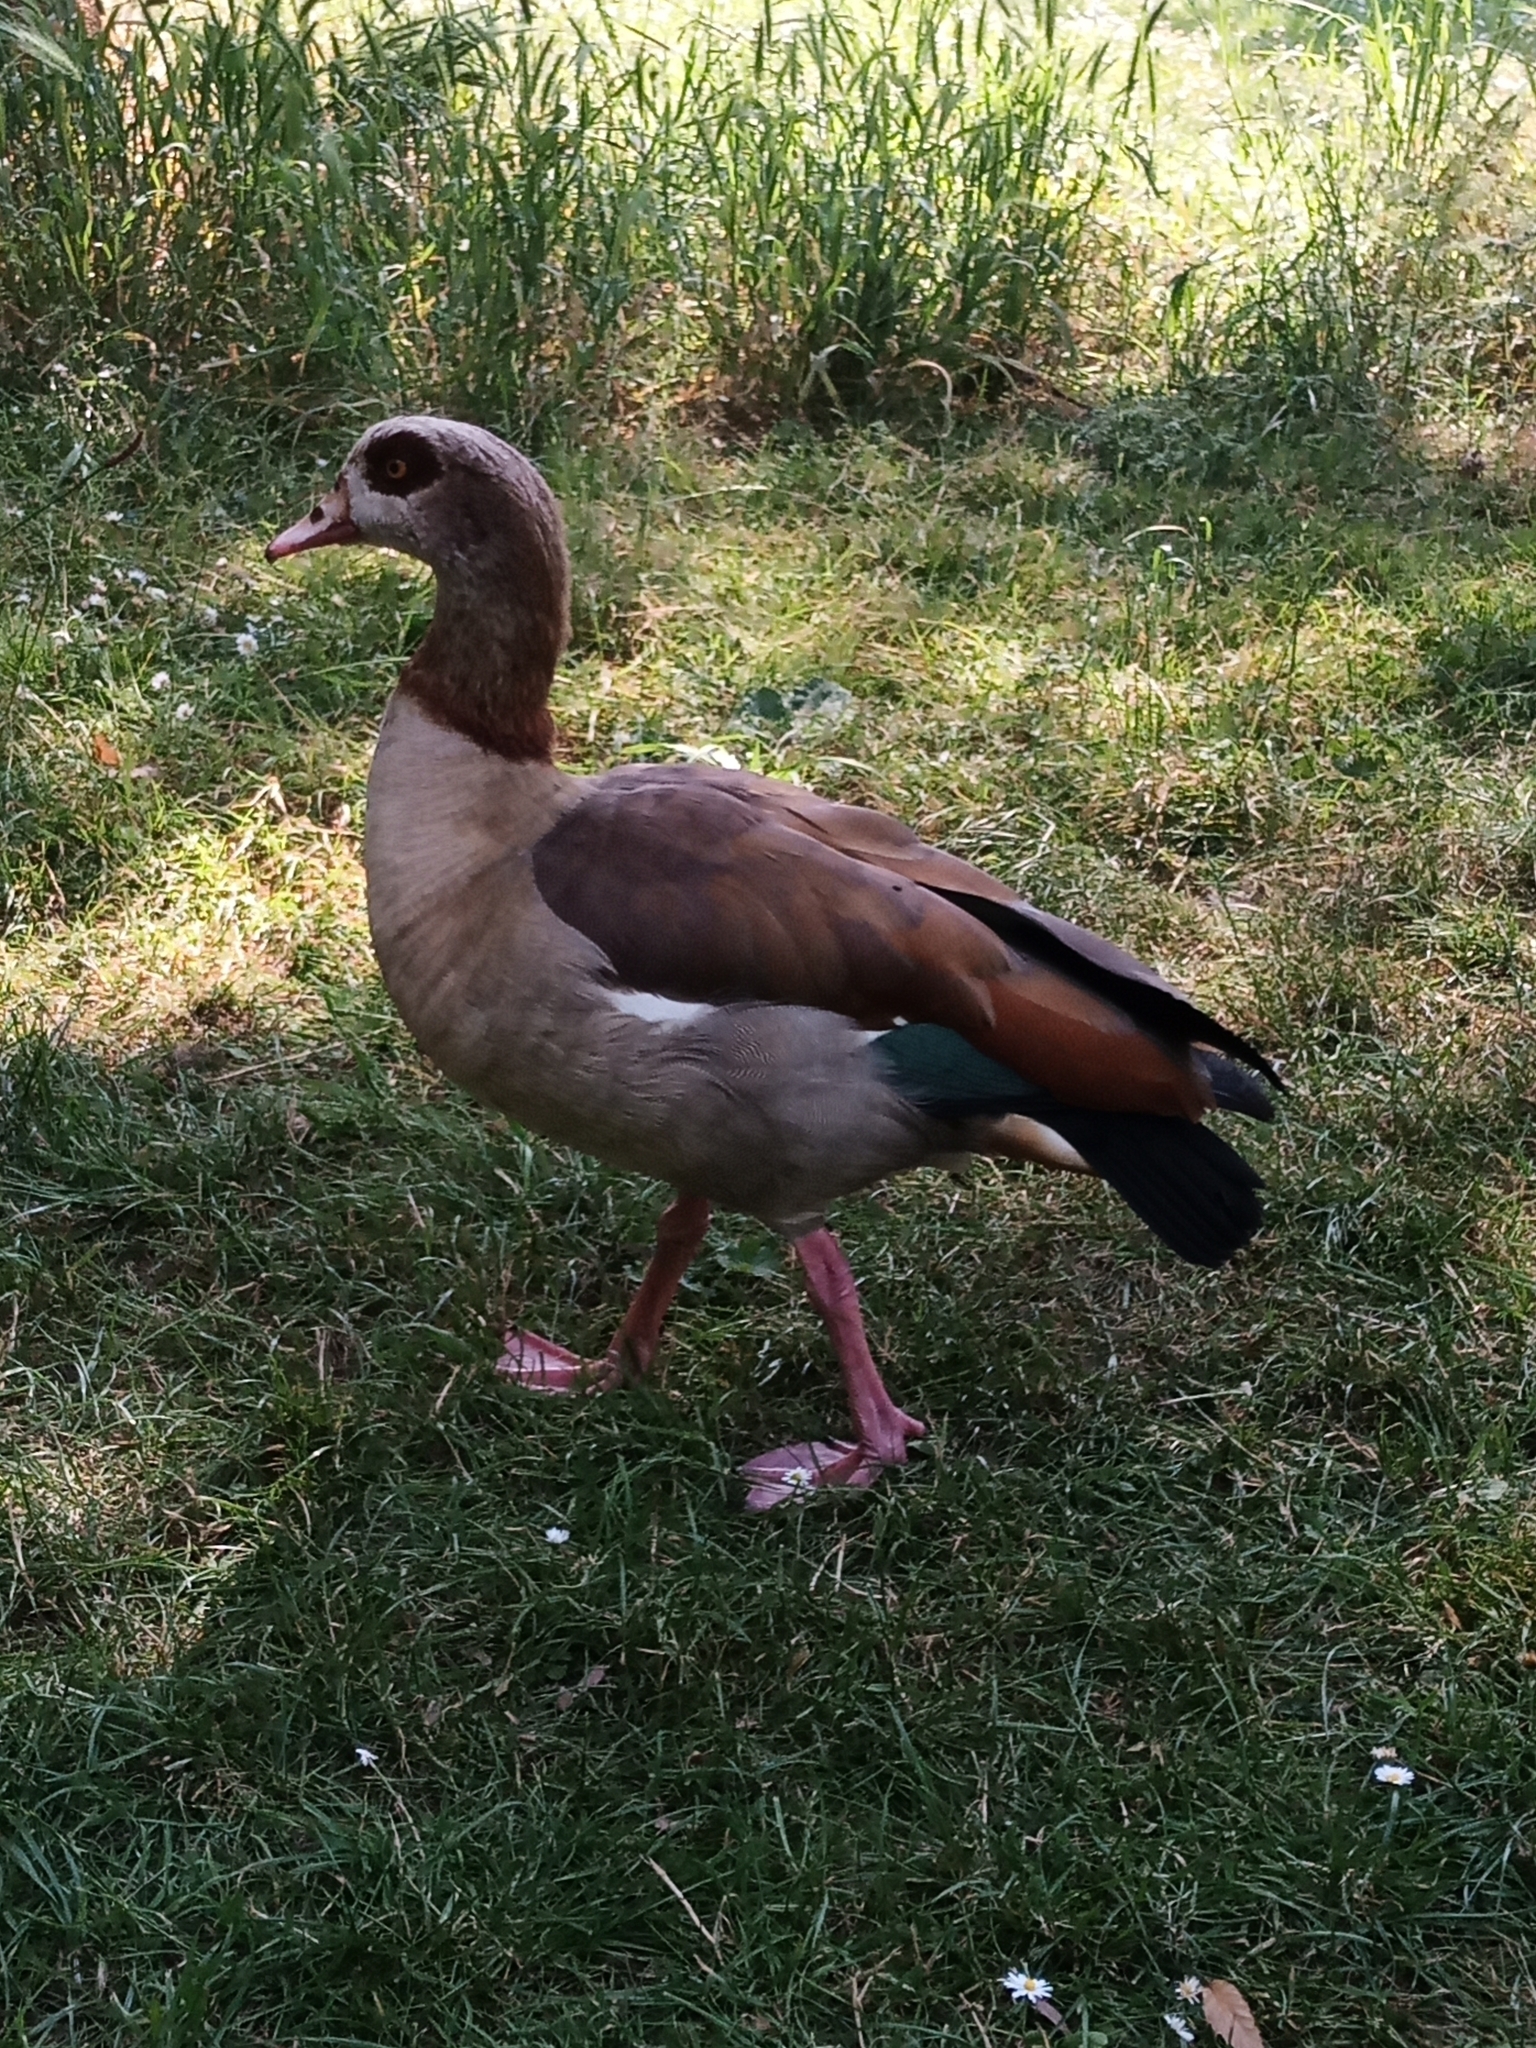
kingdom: Animalia
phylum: Chordata
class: Aves
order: Anseriformes
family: Anatidae
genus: Alopochen
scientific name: Alopochen aegyptiaca
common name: Egyptian goose
